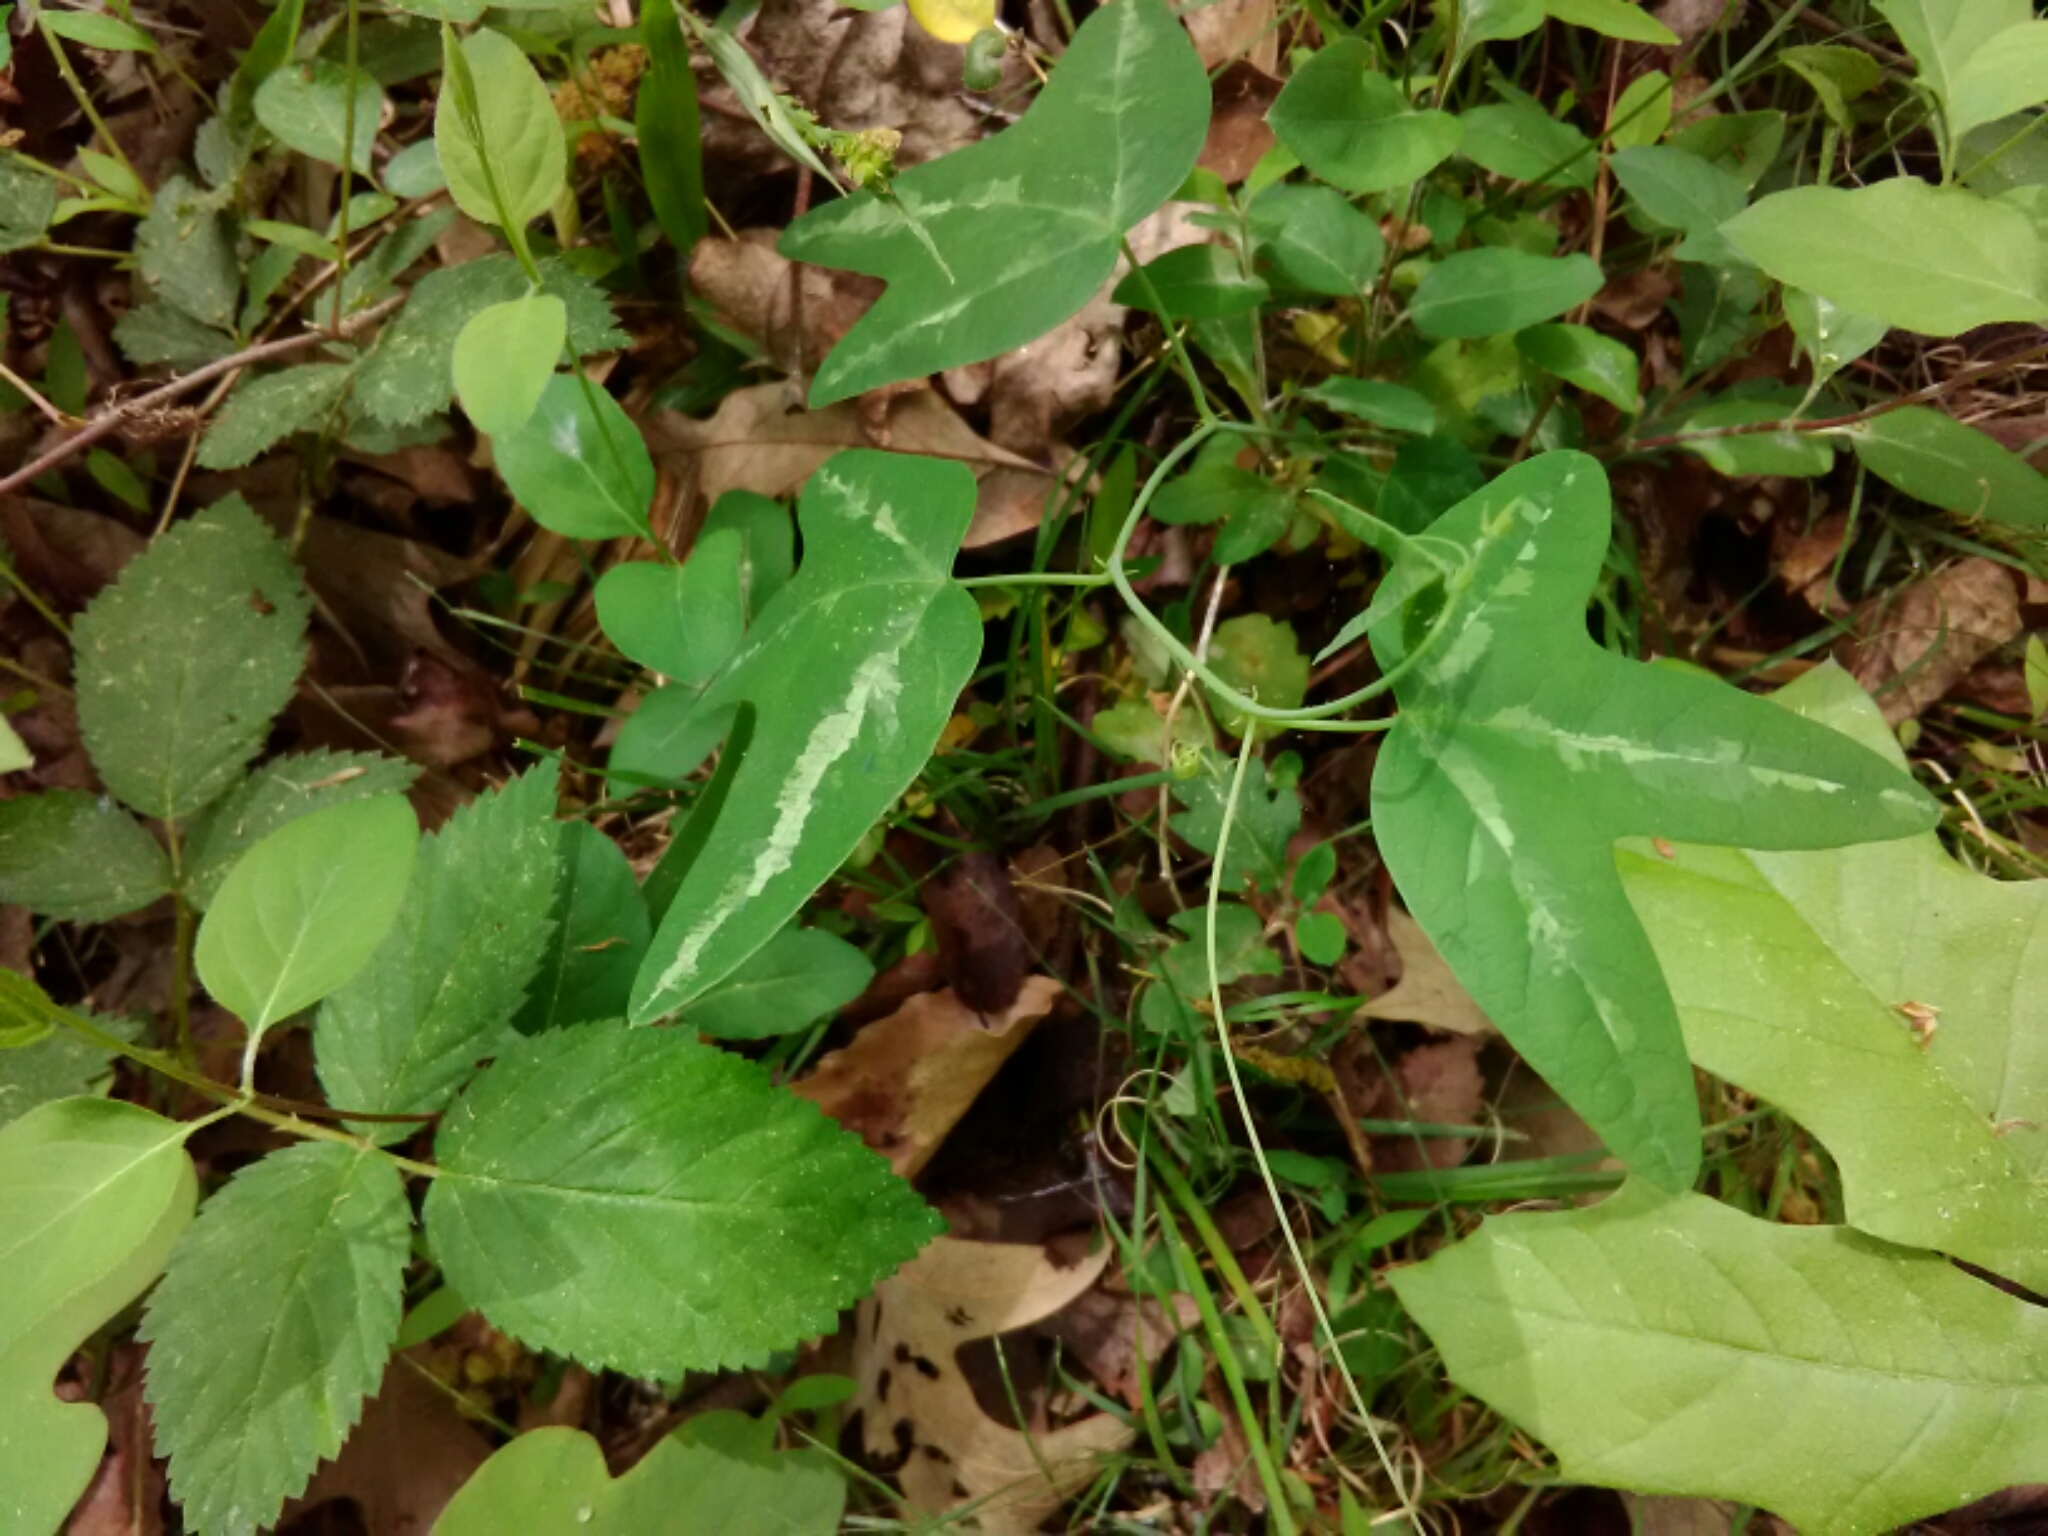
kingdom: Plantae
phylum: Tracheophyta
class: Magnoliopsida
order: Malpighiales
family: Passifloraceae
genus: Passiflora
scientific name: Passiflora lutea
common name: Yellow passionflower
